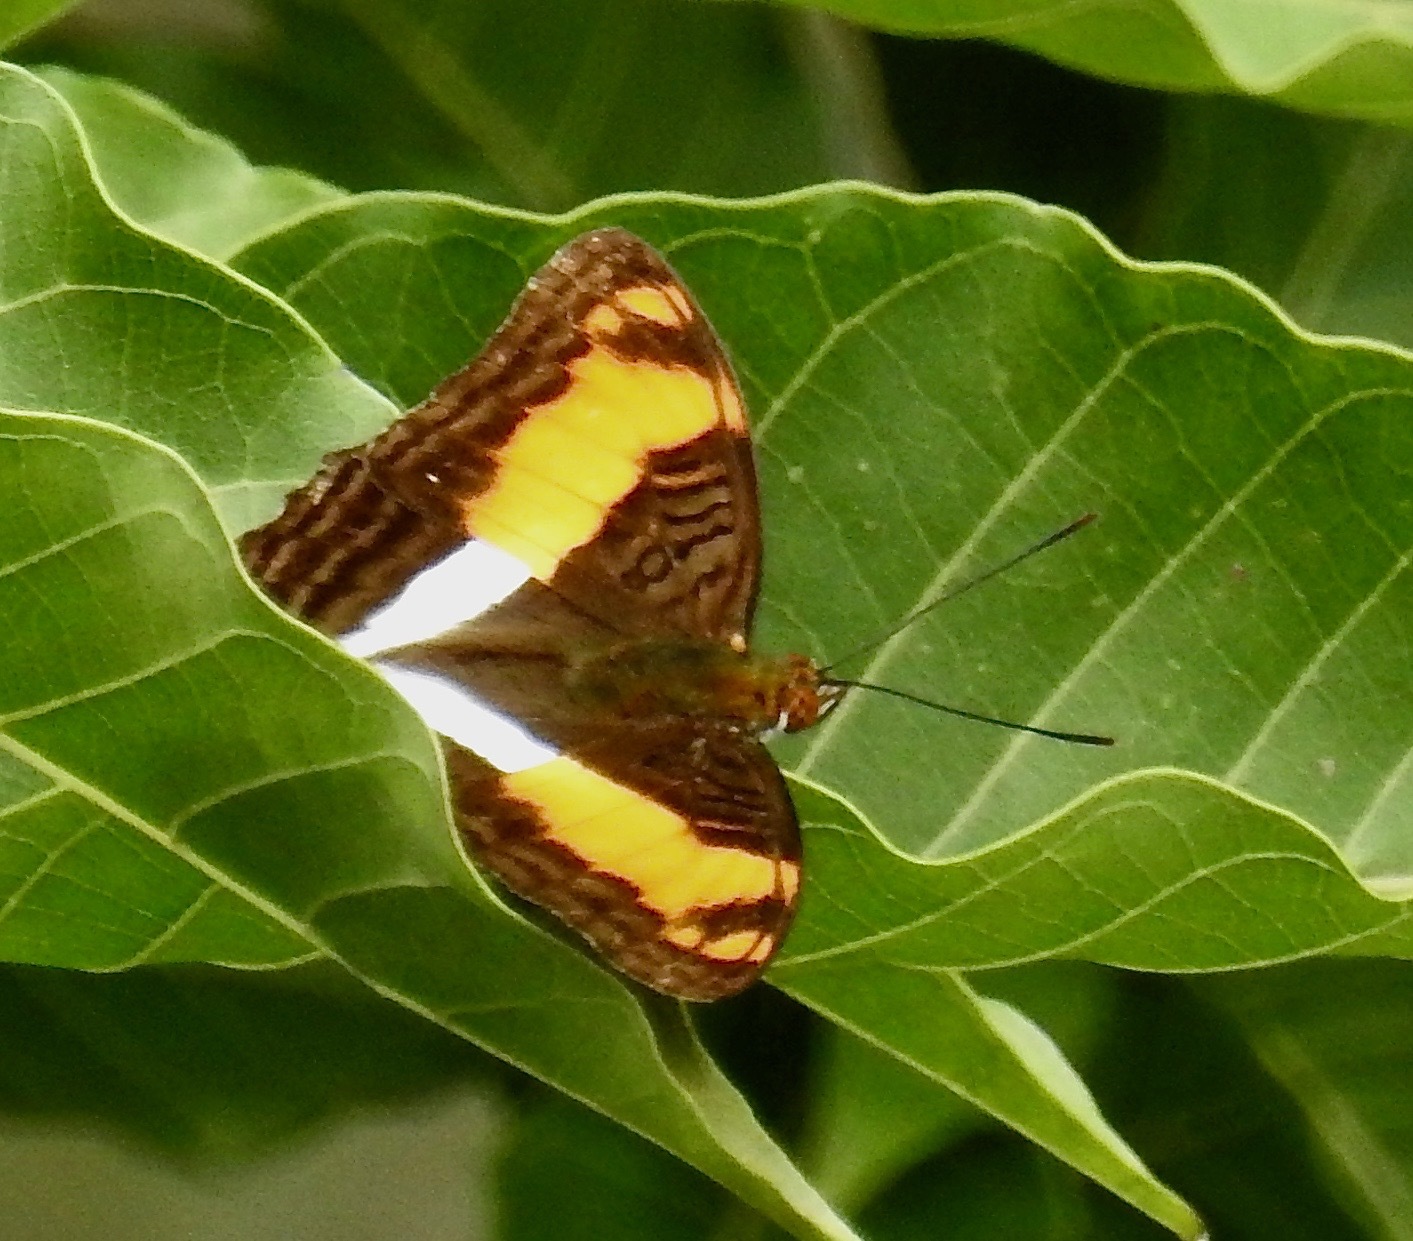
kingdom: Animalia
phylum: Arthropoda
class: Insecta
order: Lepidoptera
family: Nymphalidae
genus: Limenitis
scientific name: Limenitis phylaca
